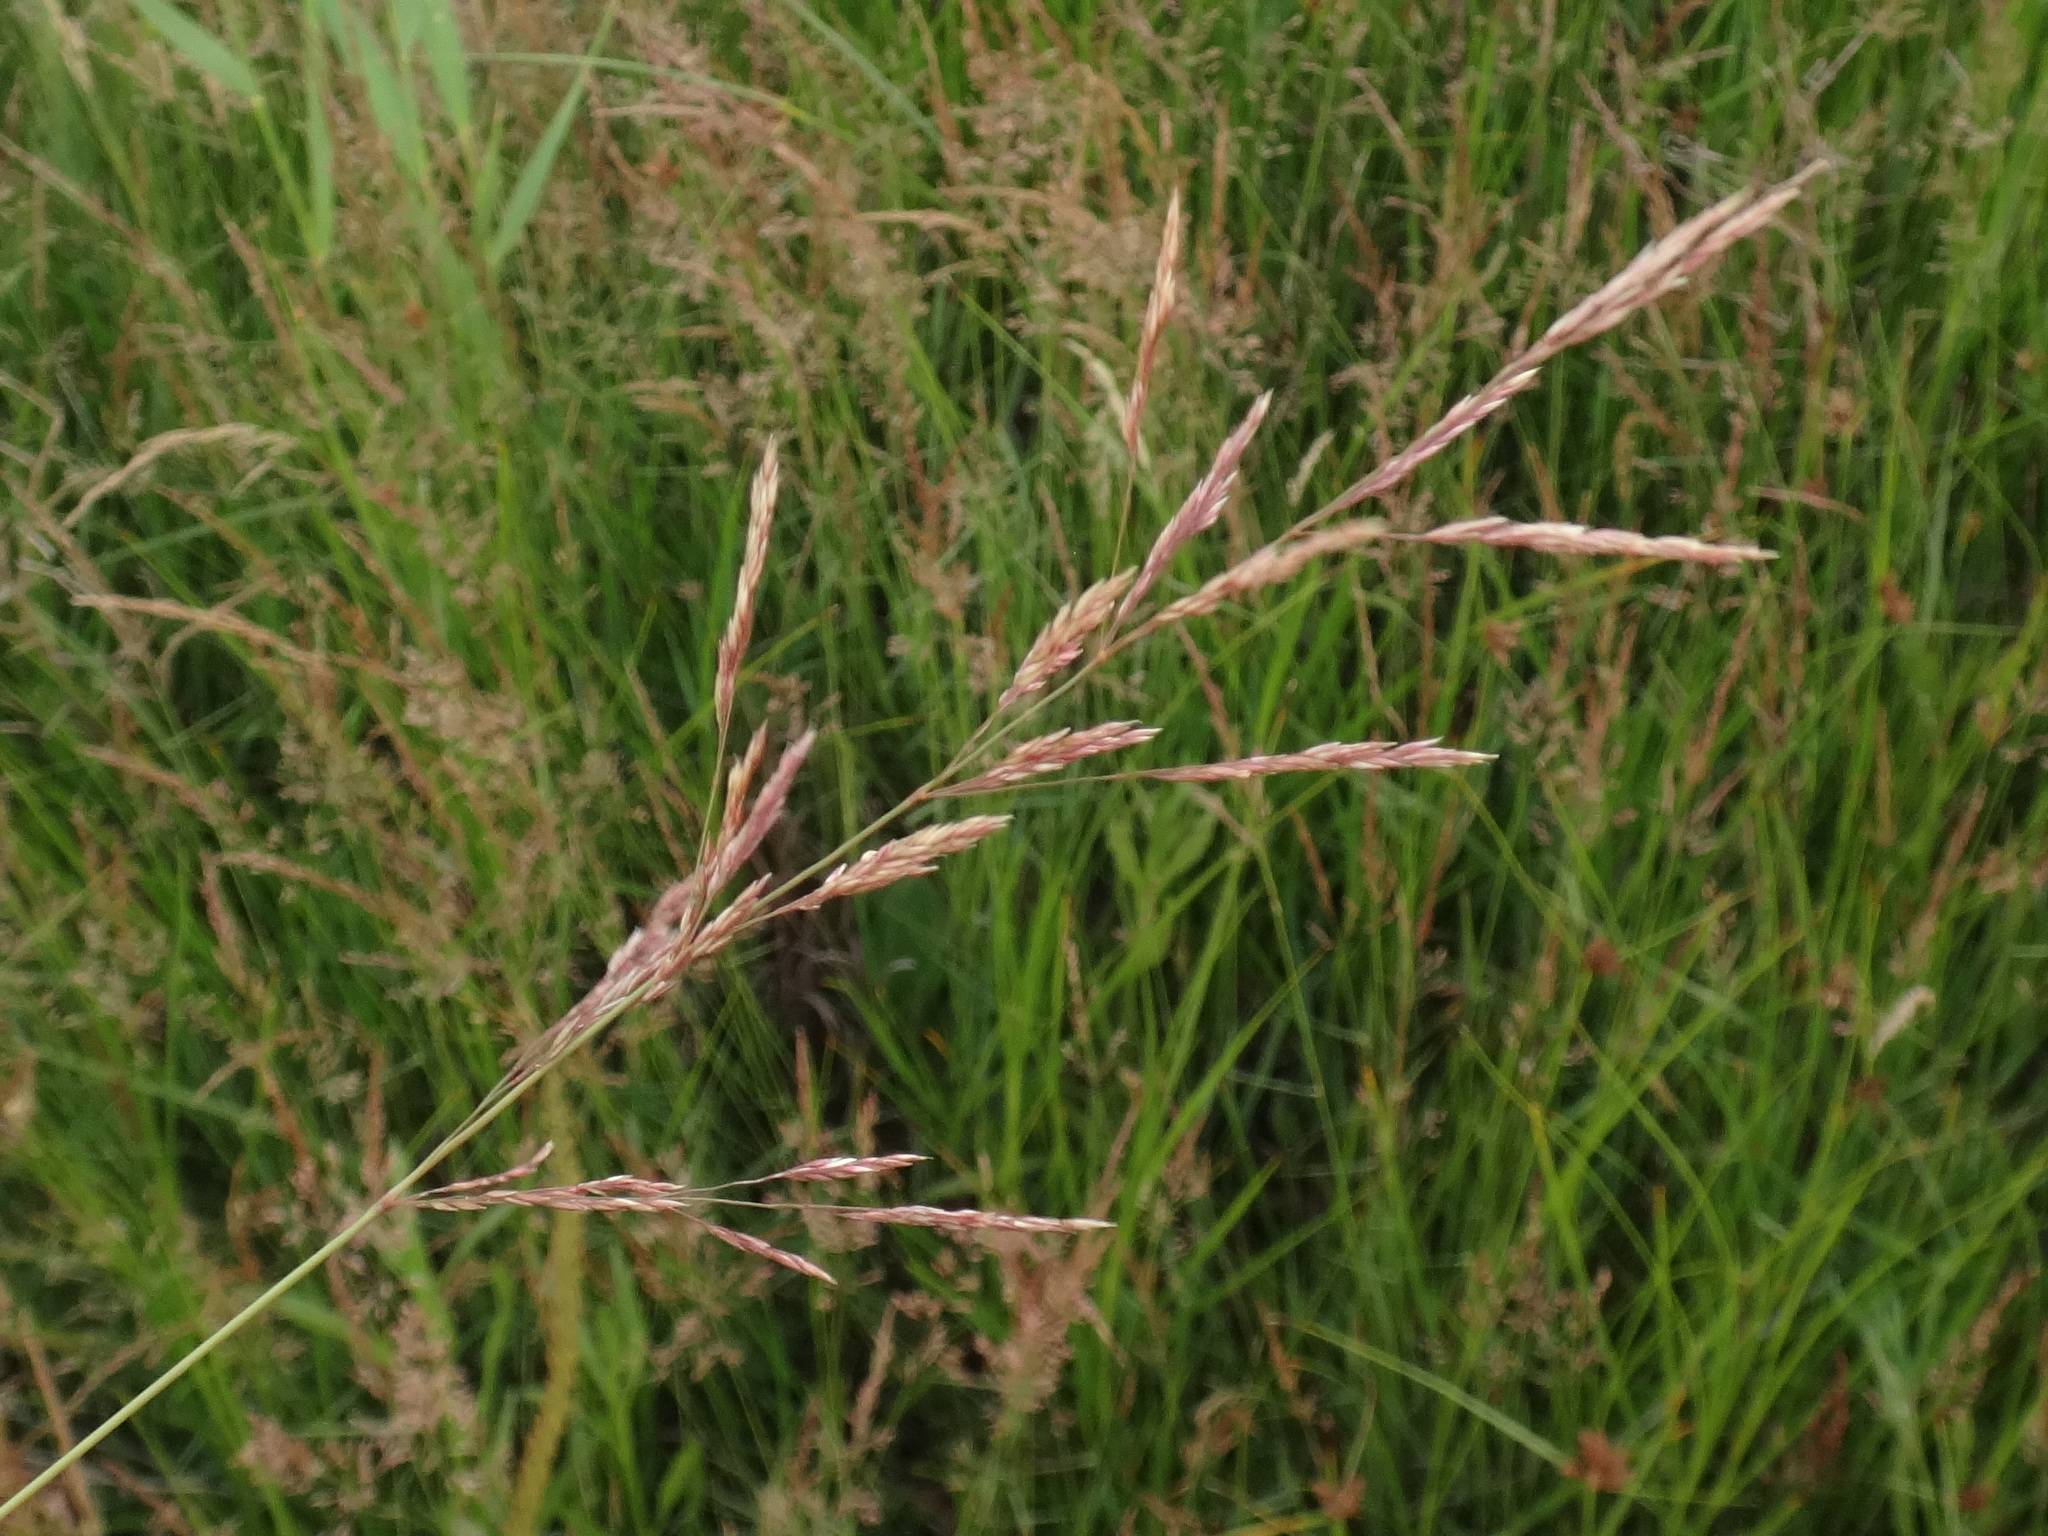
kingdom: Plantae
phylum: Tracheophyta
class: Liliopsida
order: Poales
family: Poaceae
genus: Agrostis
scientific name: Agrostis stolonifera
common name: Creeping bentgrass
